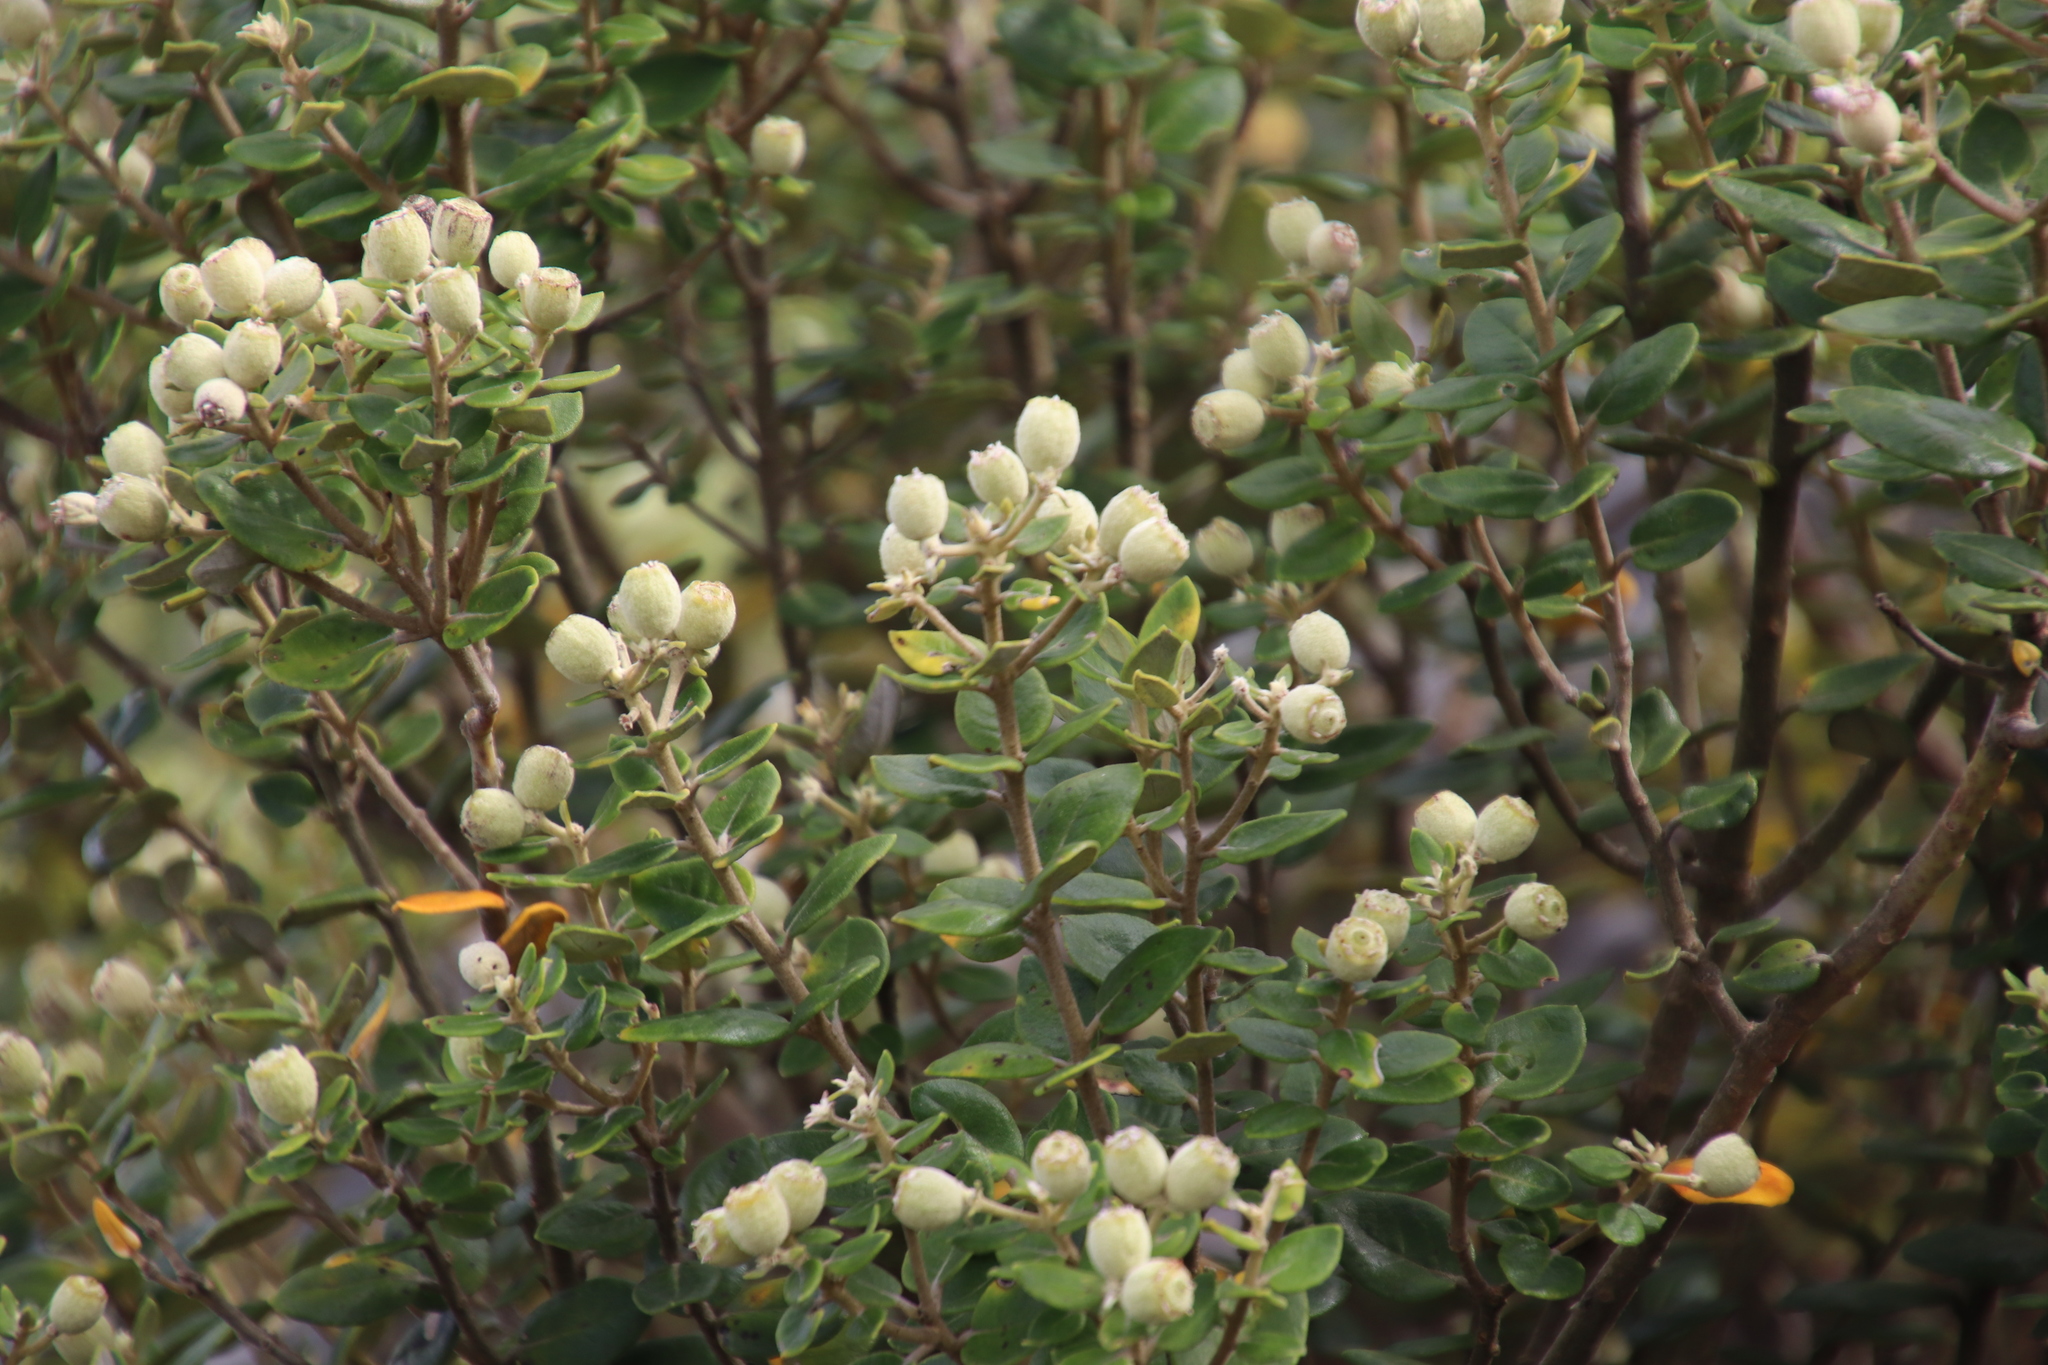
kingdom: Plantae
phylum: Tracheophyta
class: Magnoliopsida
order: Rosales
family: Rhamnaceae
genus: Phylica
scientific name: Phylica buxifolia
